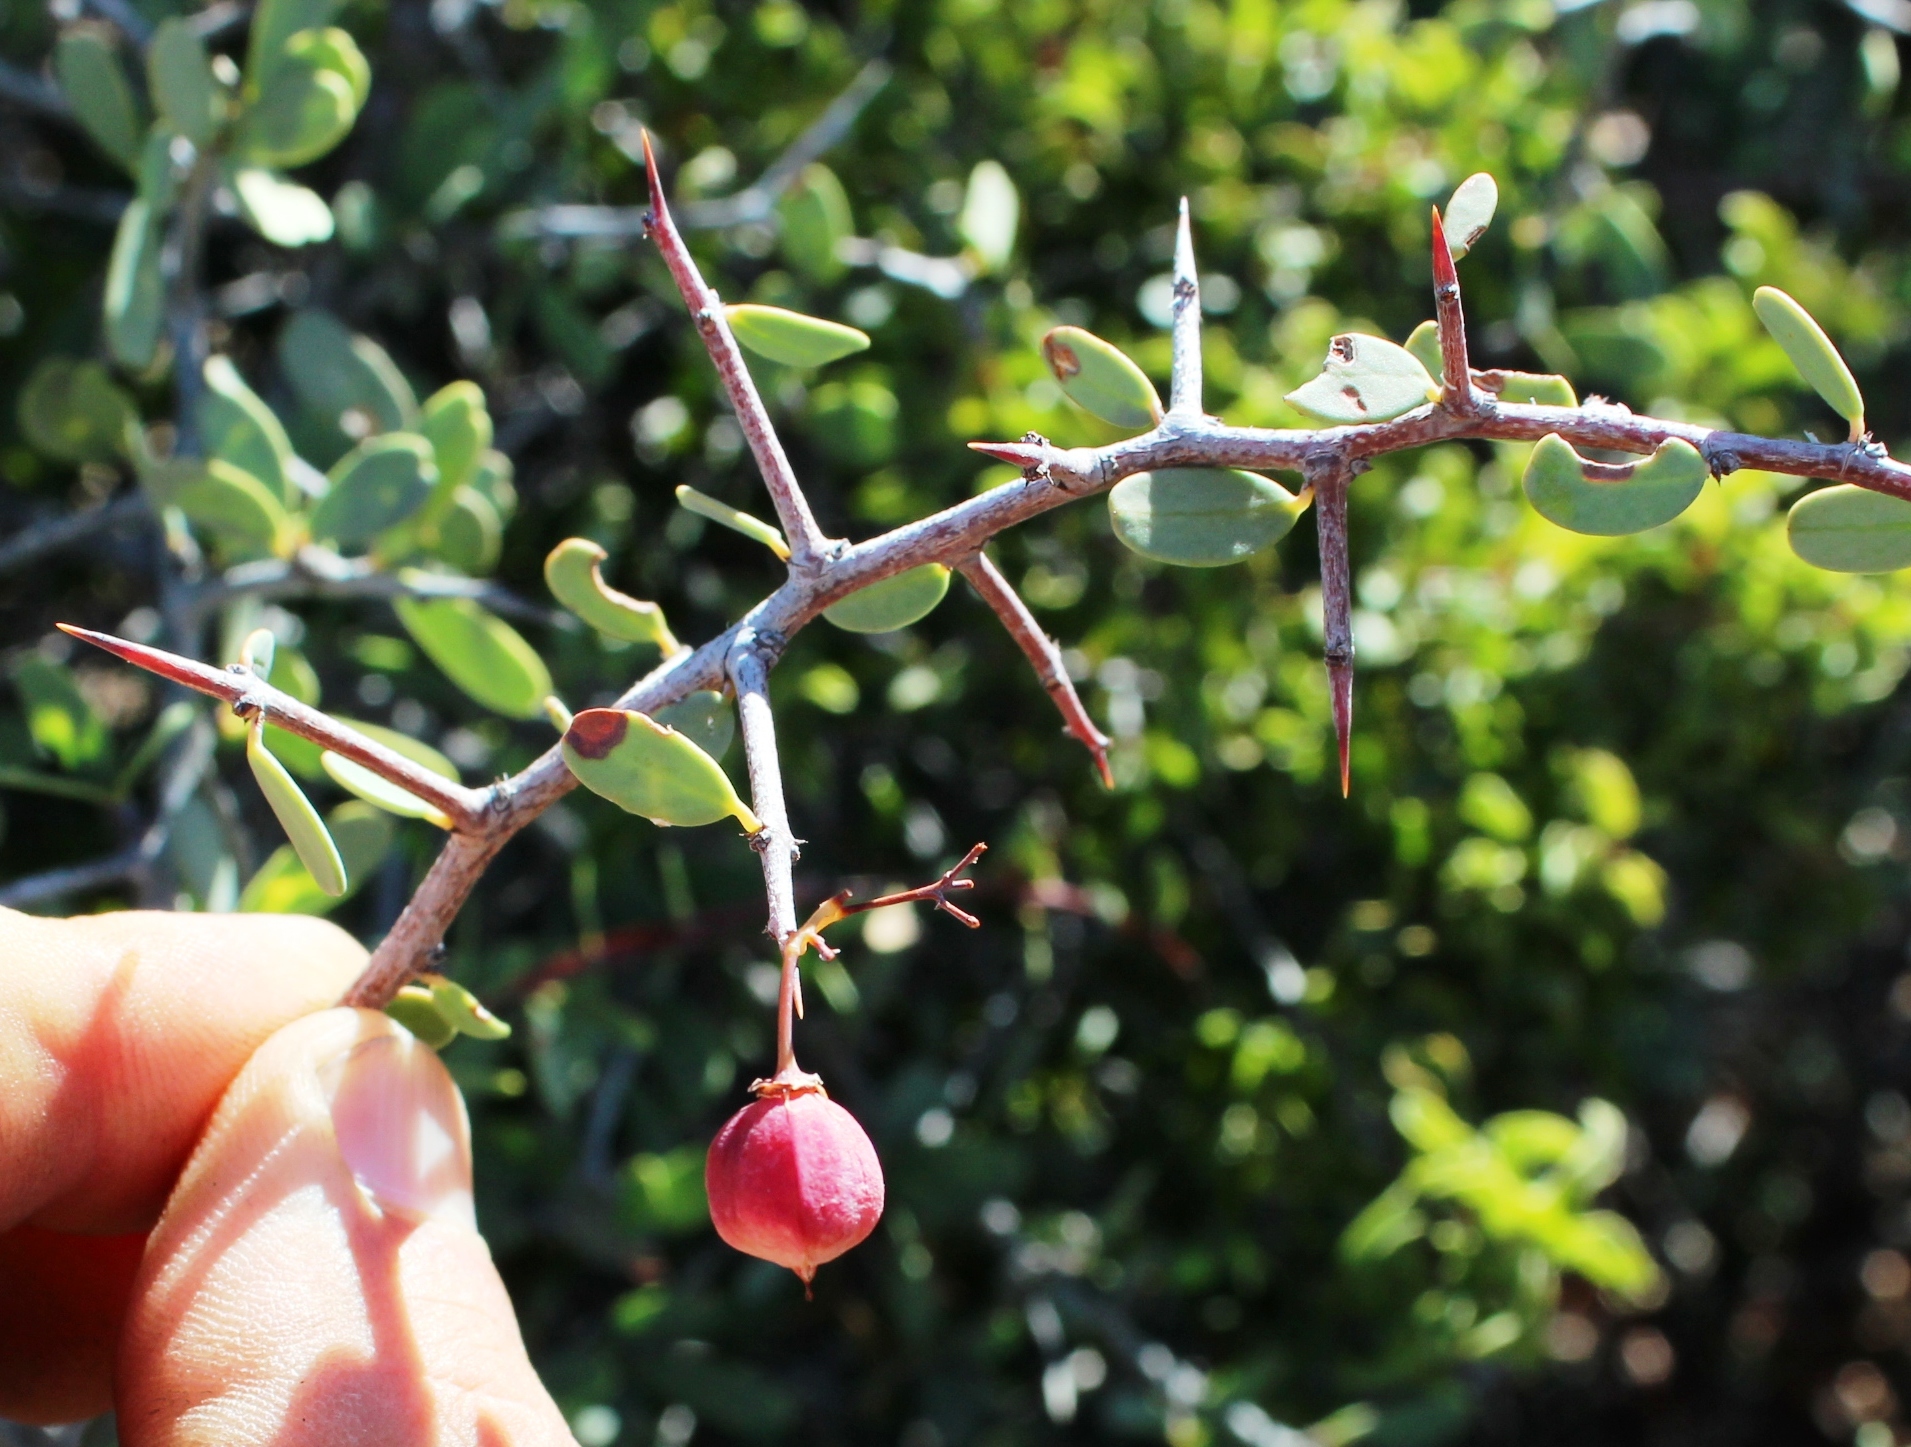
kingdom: Plantae
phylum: Tracheophyta
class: Magnoliopsida
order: Celastrales
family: Celastraceae
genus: Gloveria
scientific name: Gloveria integrifolia
